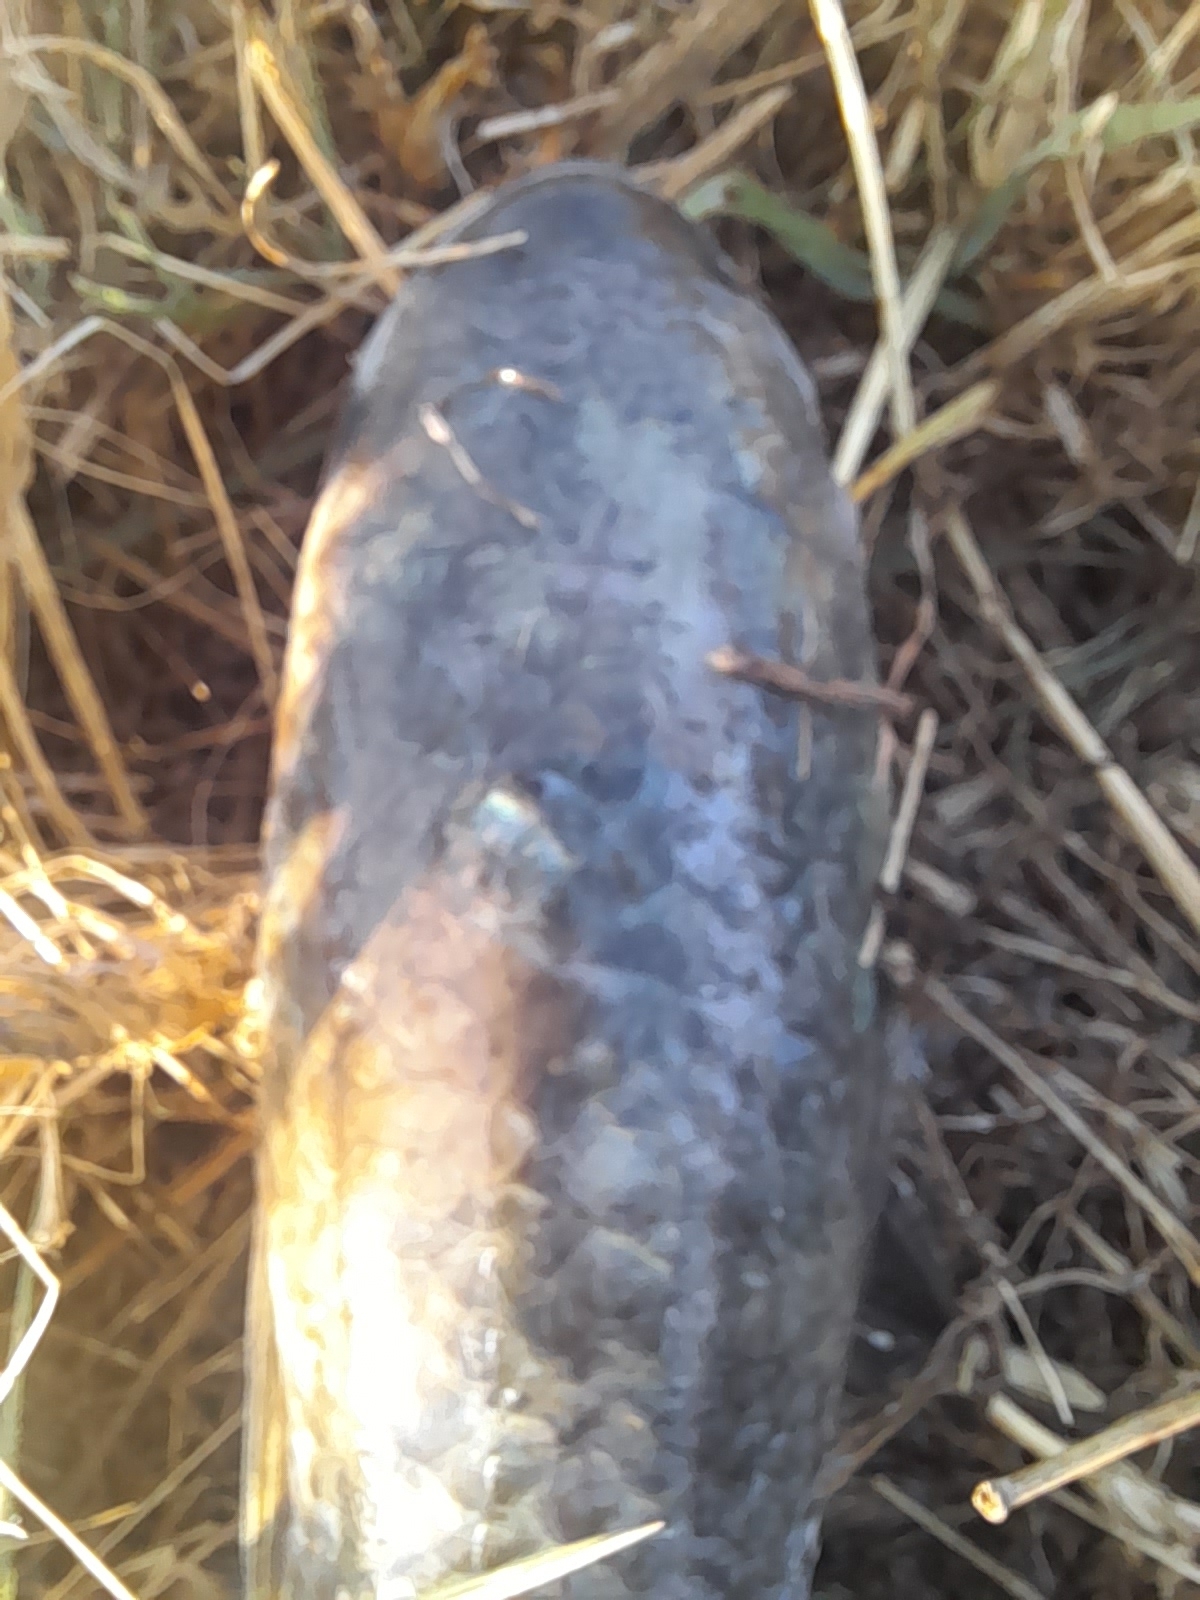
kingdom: Animalia
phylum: Chordata
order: Mugiliformes
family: Mugilidae
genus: Chelon
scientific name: Chelon ramada
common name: Thinlip grey mullet
